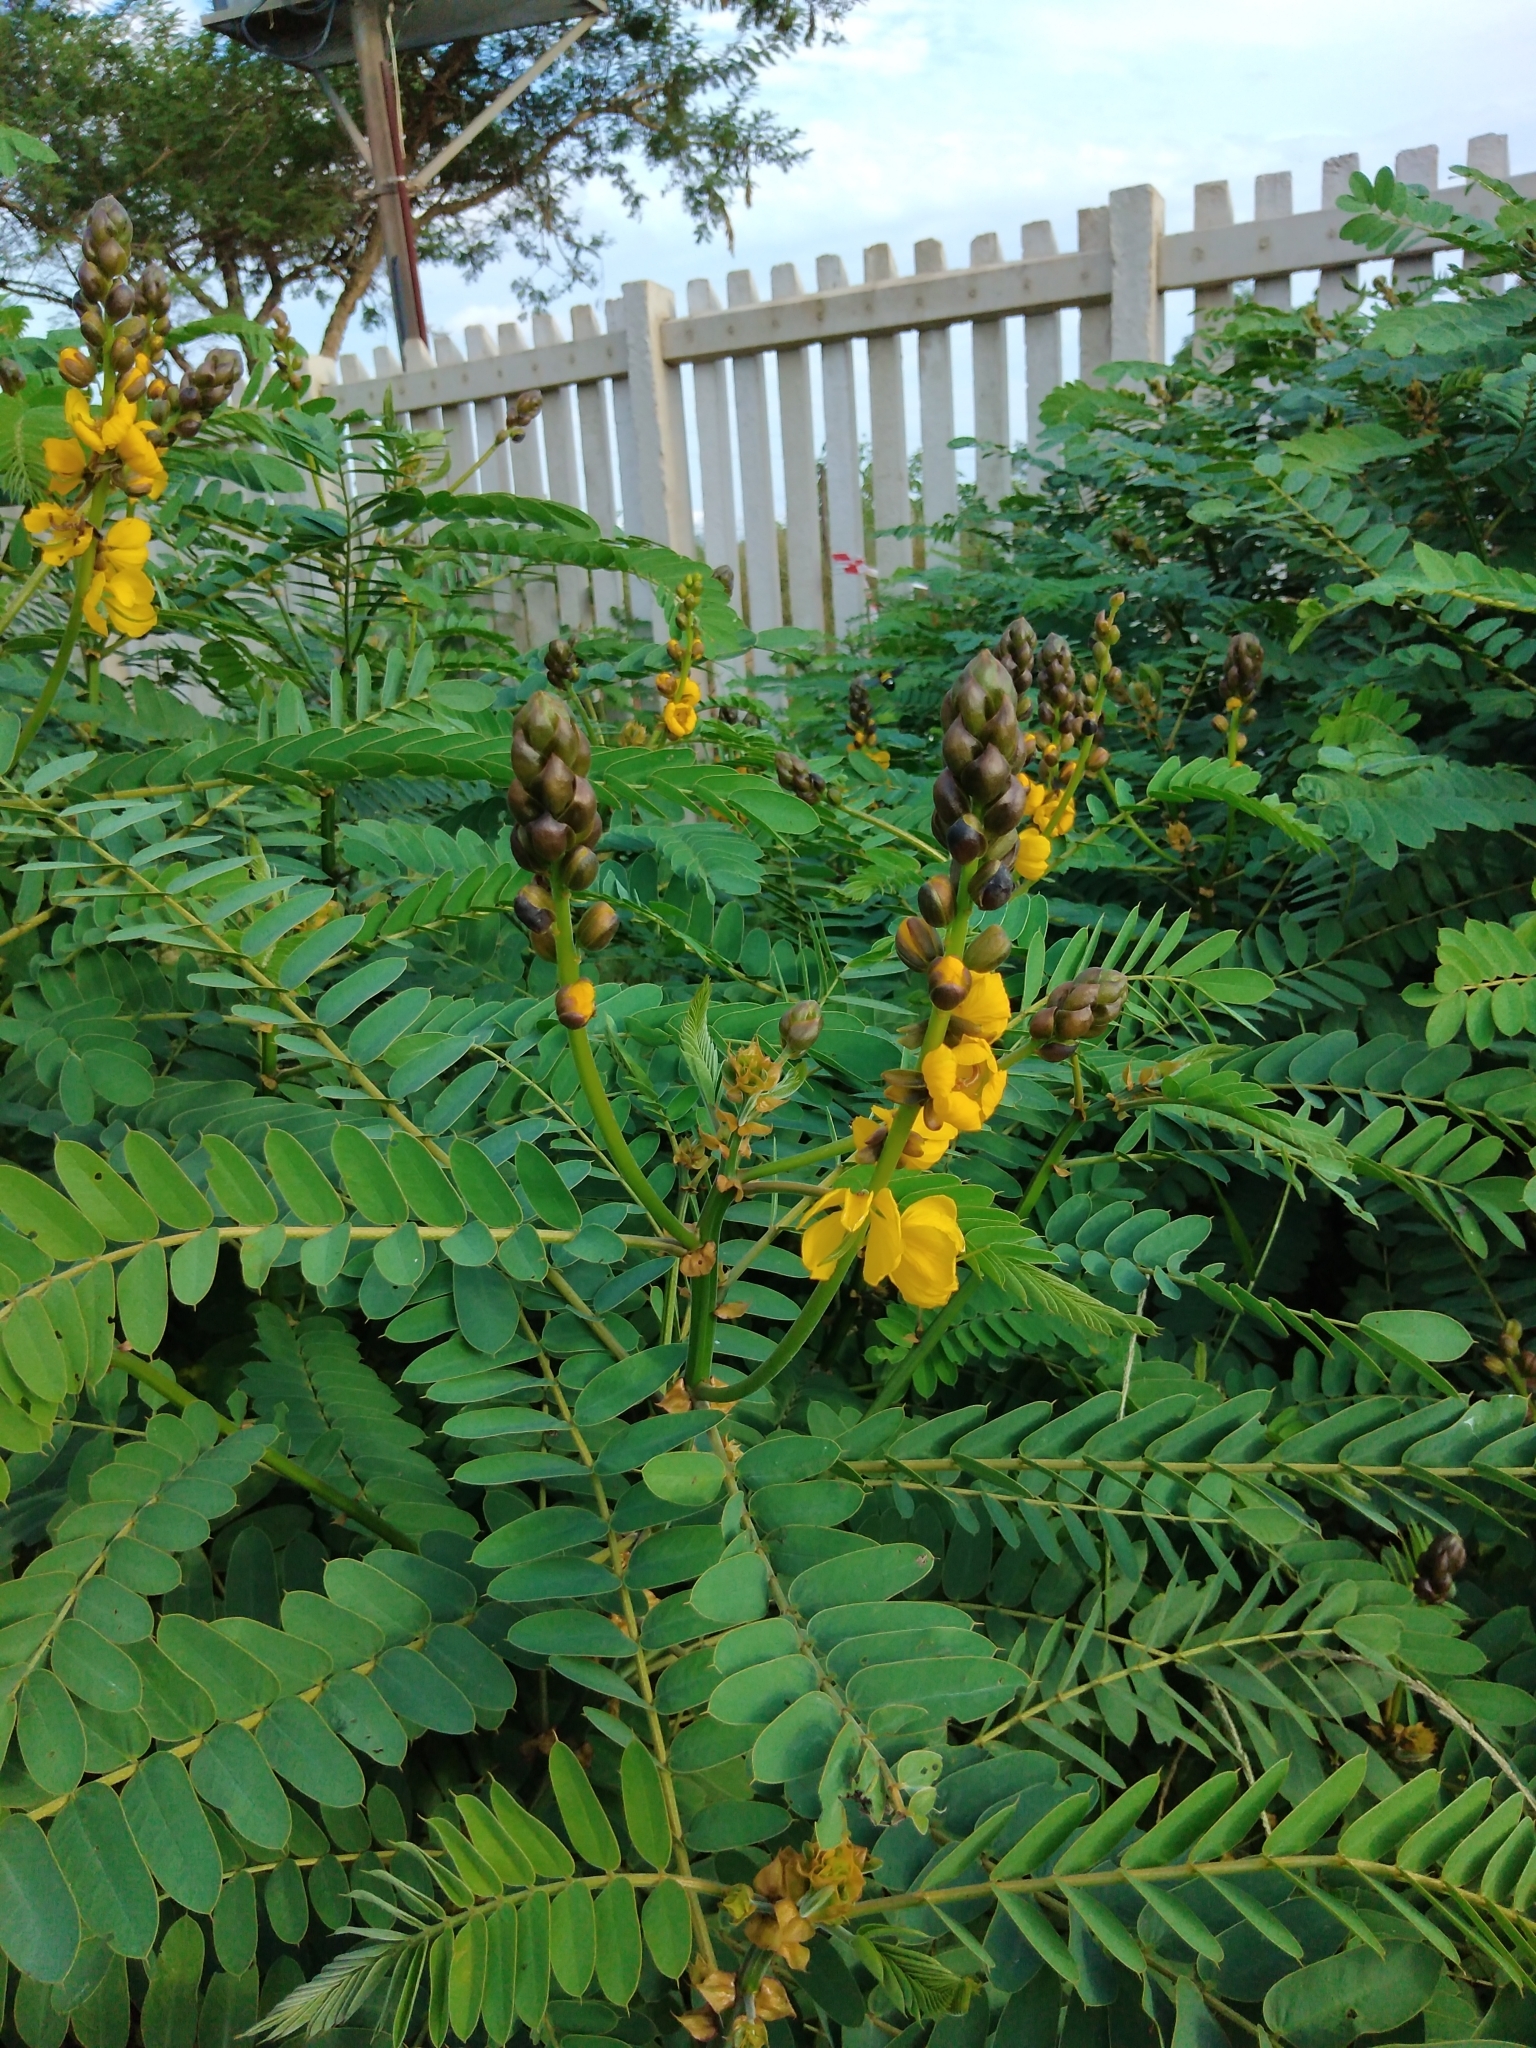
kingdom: Plantae
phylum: Tracheophyta
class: Magnoliopsida
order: Fabales
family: Fabaceae
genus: Senna
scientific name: Senna didymobotrya
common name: African senna
